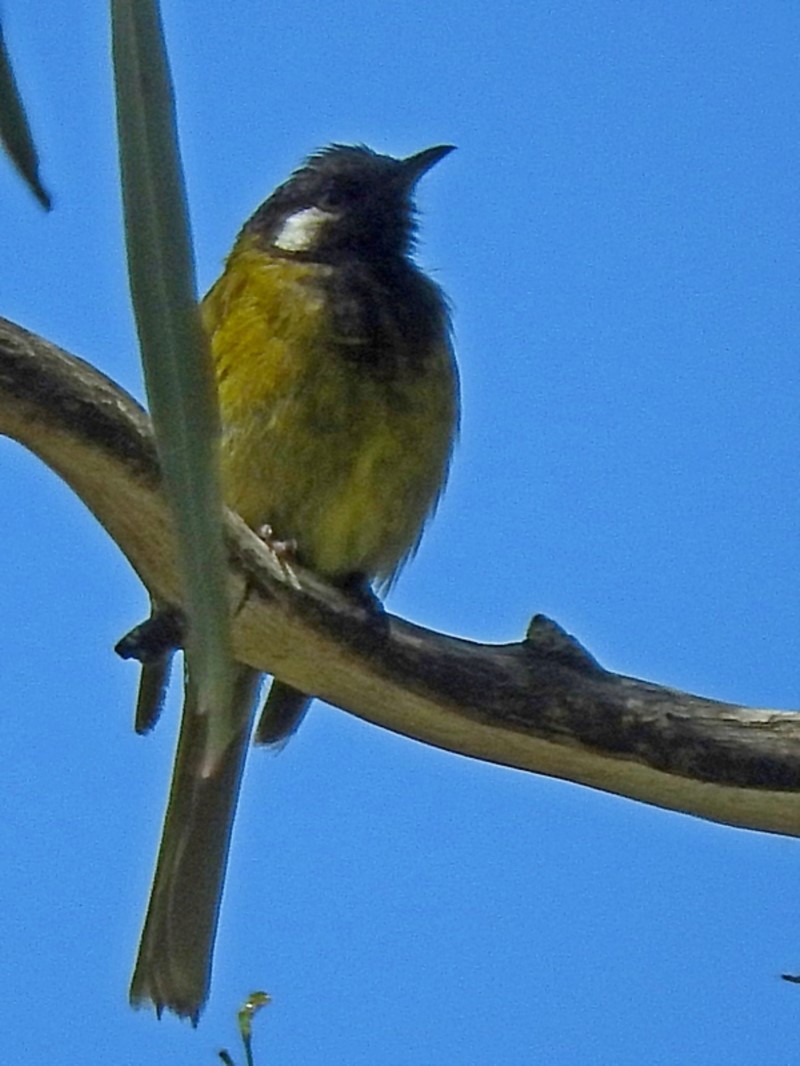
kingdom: Animalia
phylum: Chordata
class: Aves
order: Passeriformes
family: Meliphagidae
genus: Nesoptilotis
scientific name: Nesoptilotis leucotis
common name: White-eared honeyeater
